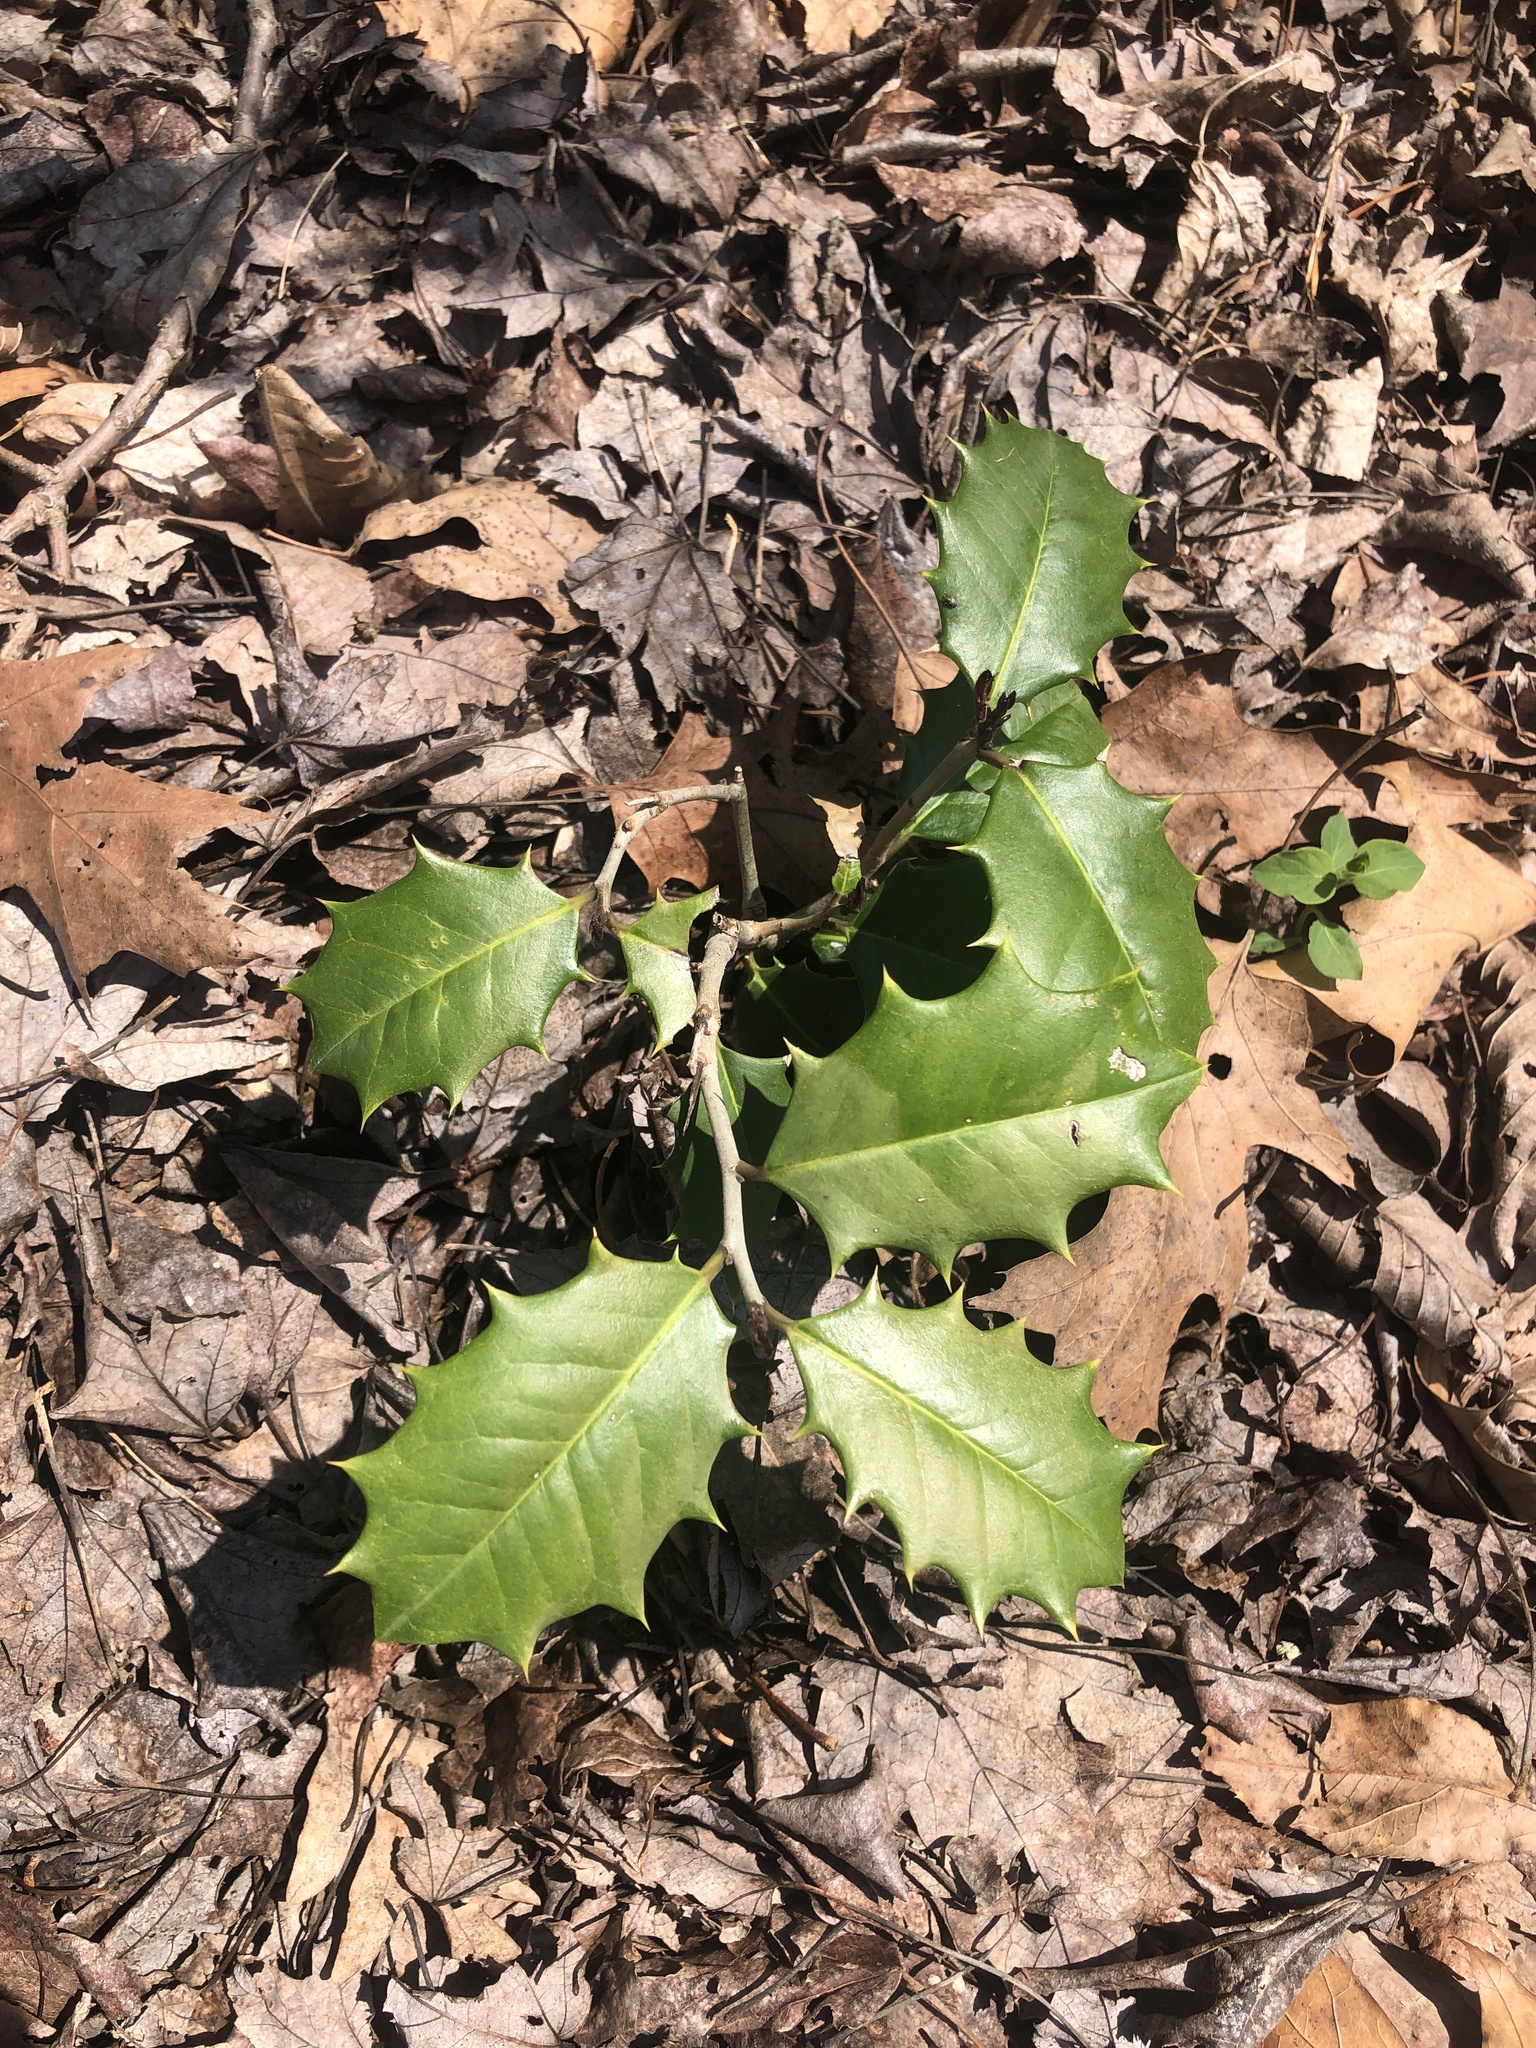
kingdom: Plantae
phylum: Tracheophyta
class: Magnoliopsida
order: Aquifoliales
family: Aquifoliaceae
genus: Ilex
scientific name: Ilex opaca
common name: American holly
